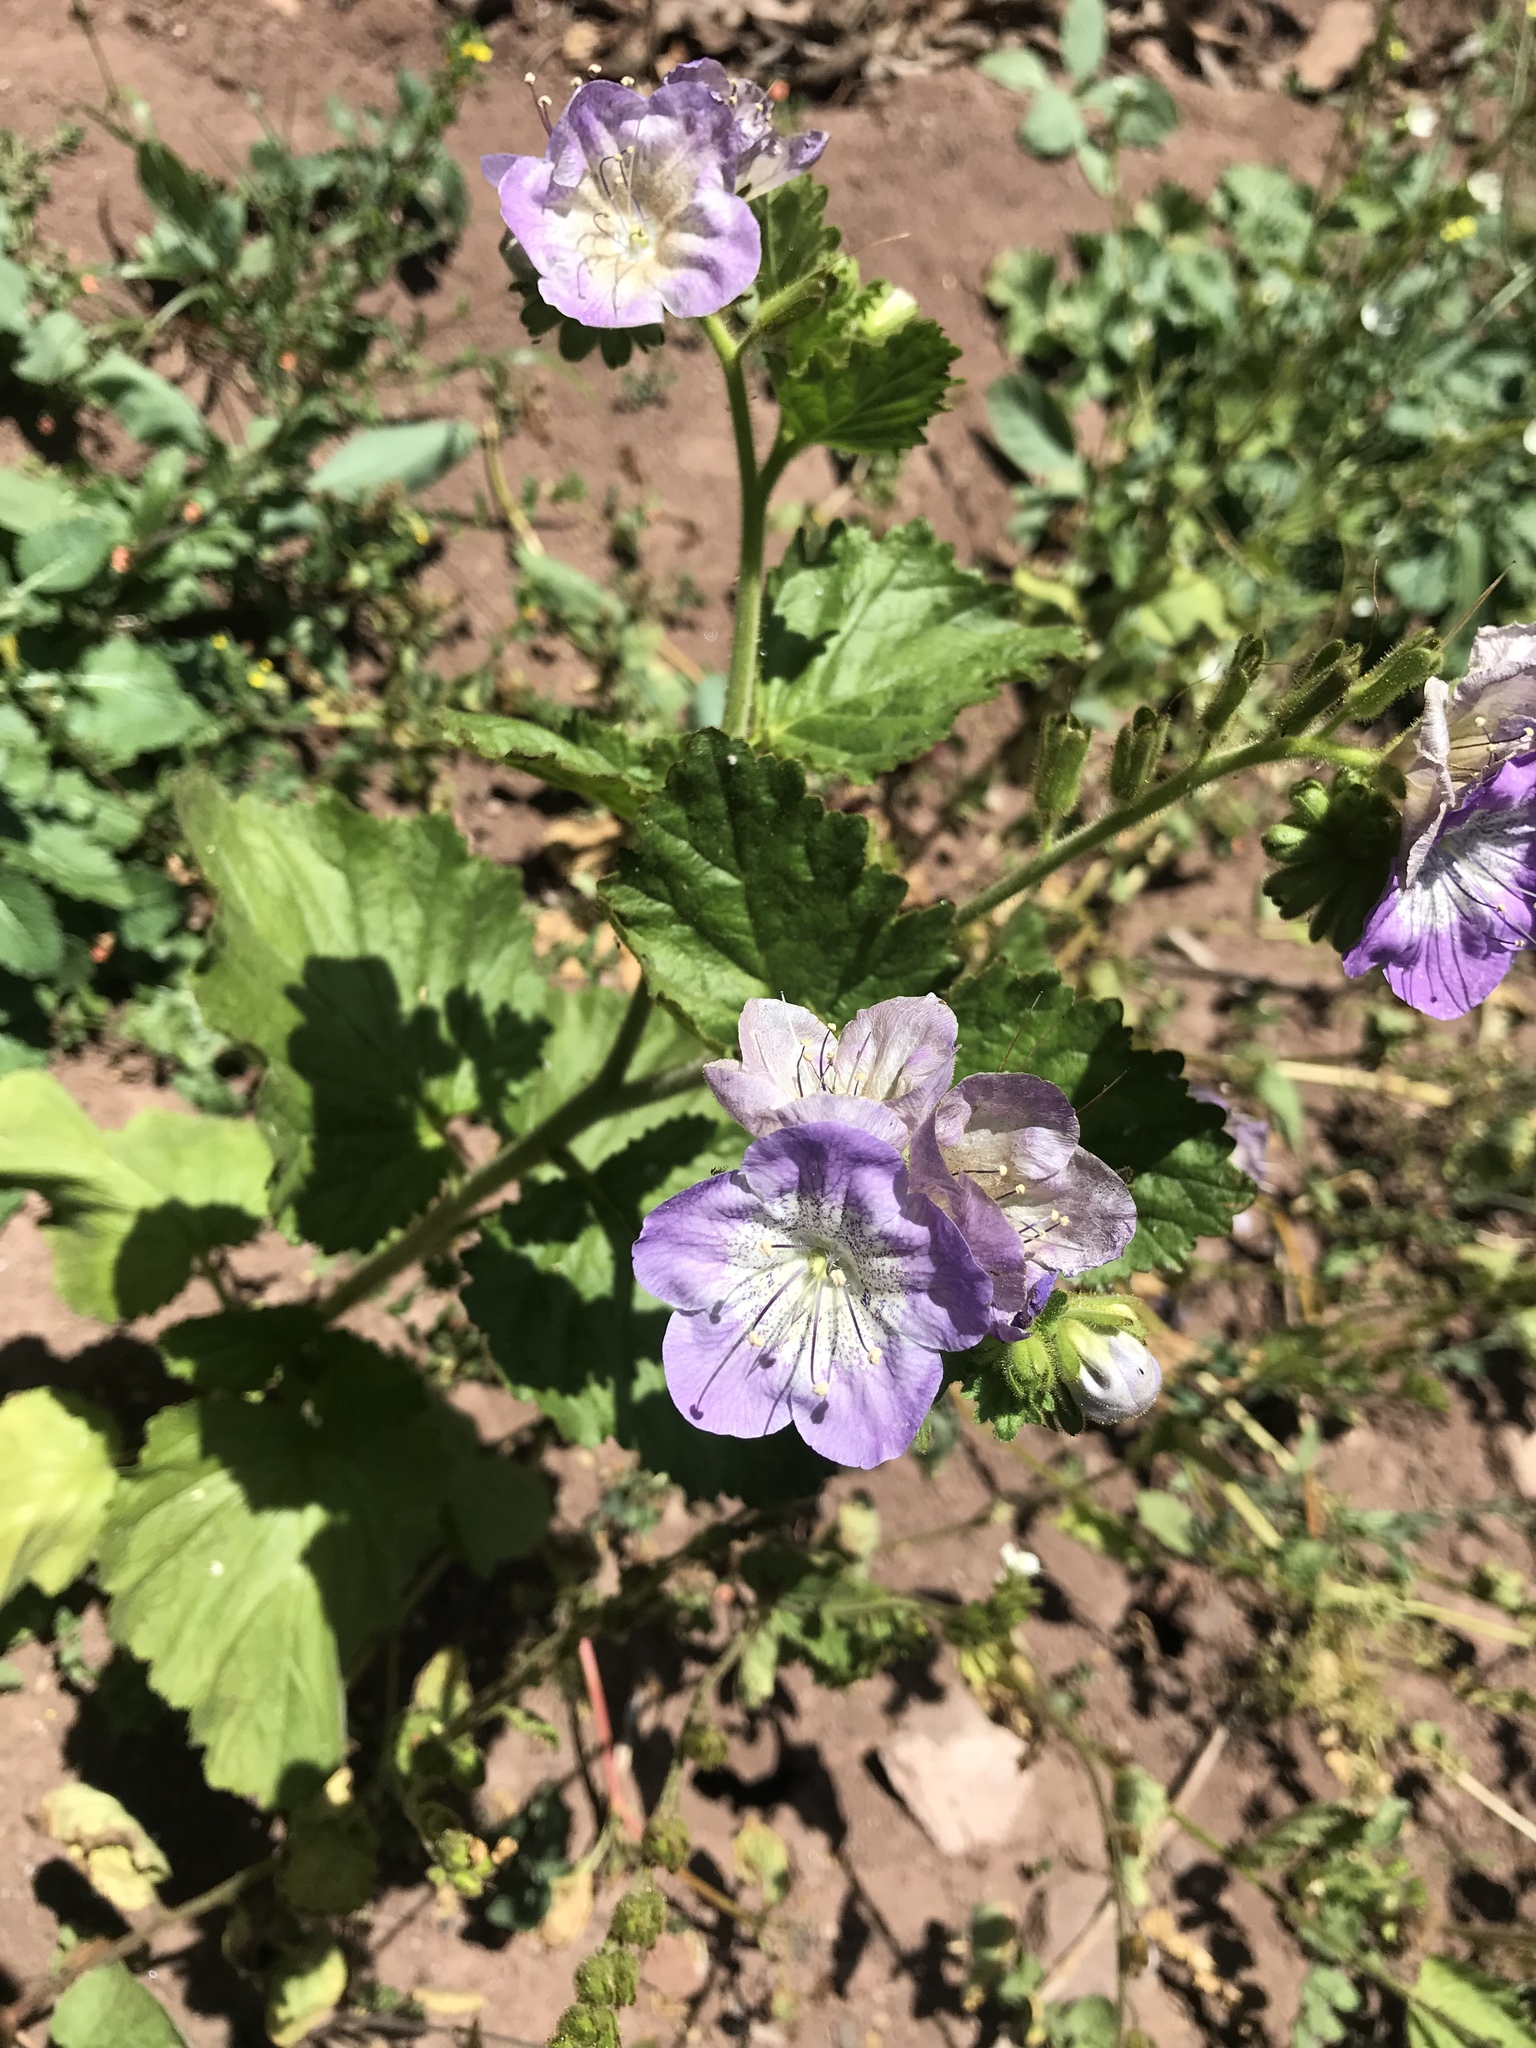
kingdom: Plantae
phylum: Tracheophyta
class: Magnoliopsida
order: Boraginales
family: Hydrophyllaceae
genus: Phacelia
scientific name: Phacelia grandiflora
